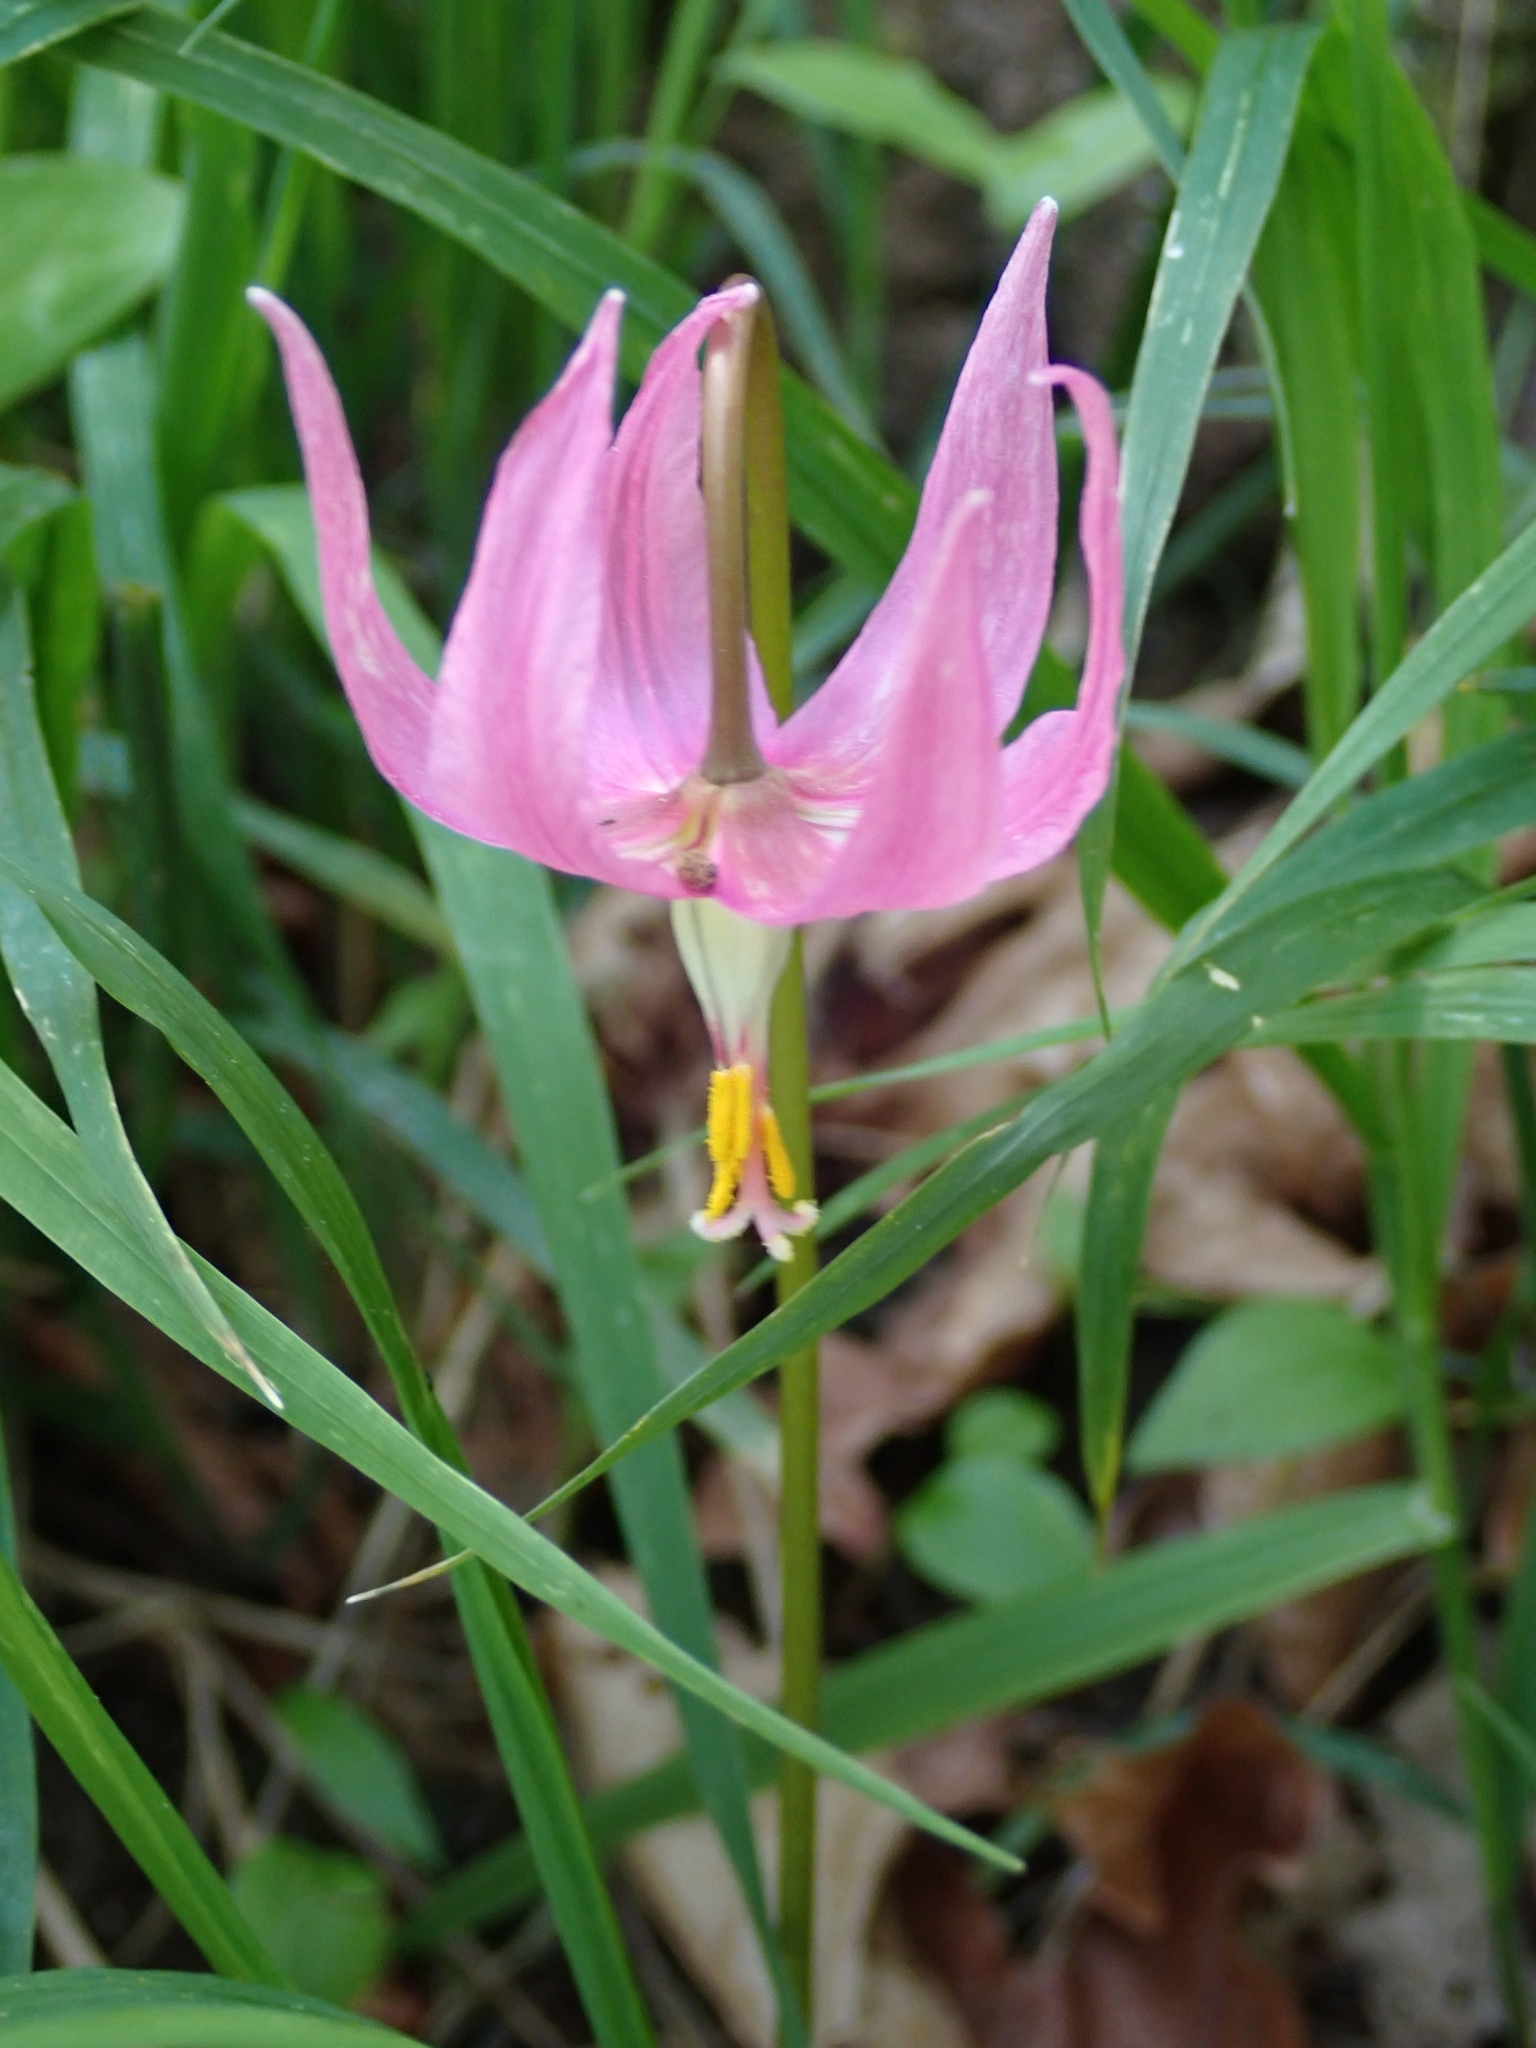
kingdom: Plantae
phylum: Tracheophyta
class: Liliopsida
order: Liliales
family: Liliaceae
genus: Erythronium
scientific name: Erythronium revolutum
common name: Pink fawn-lily
